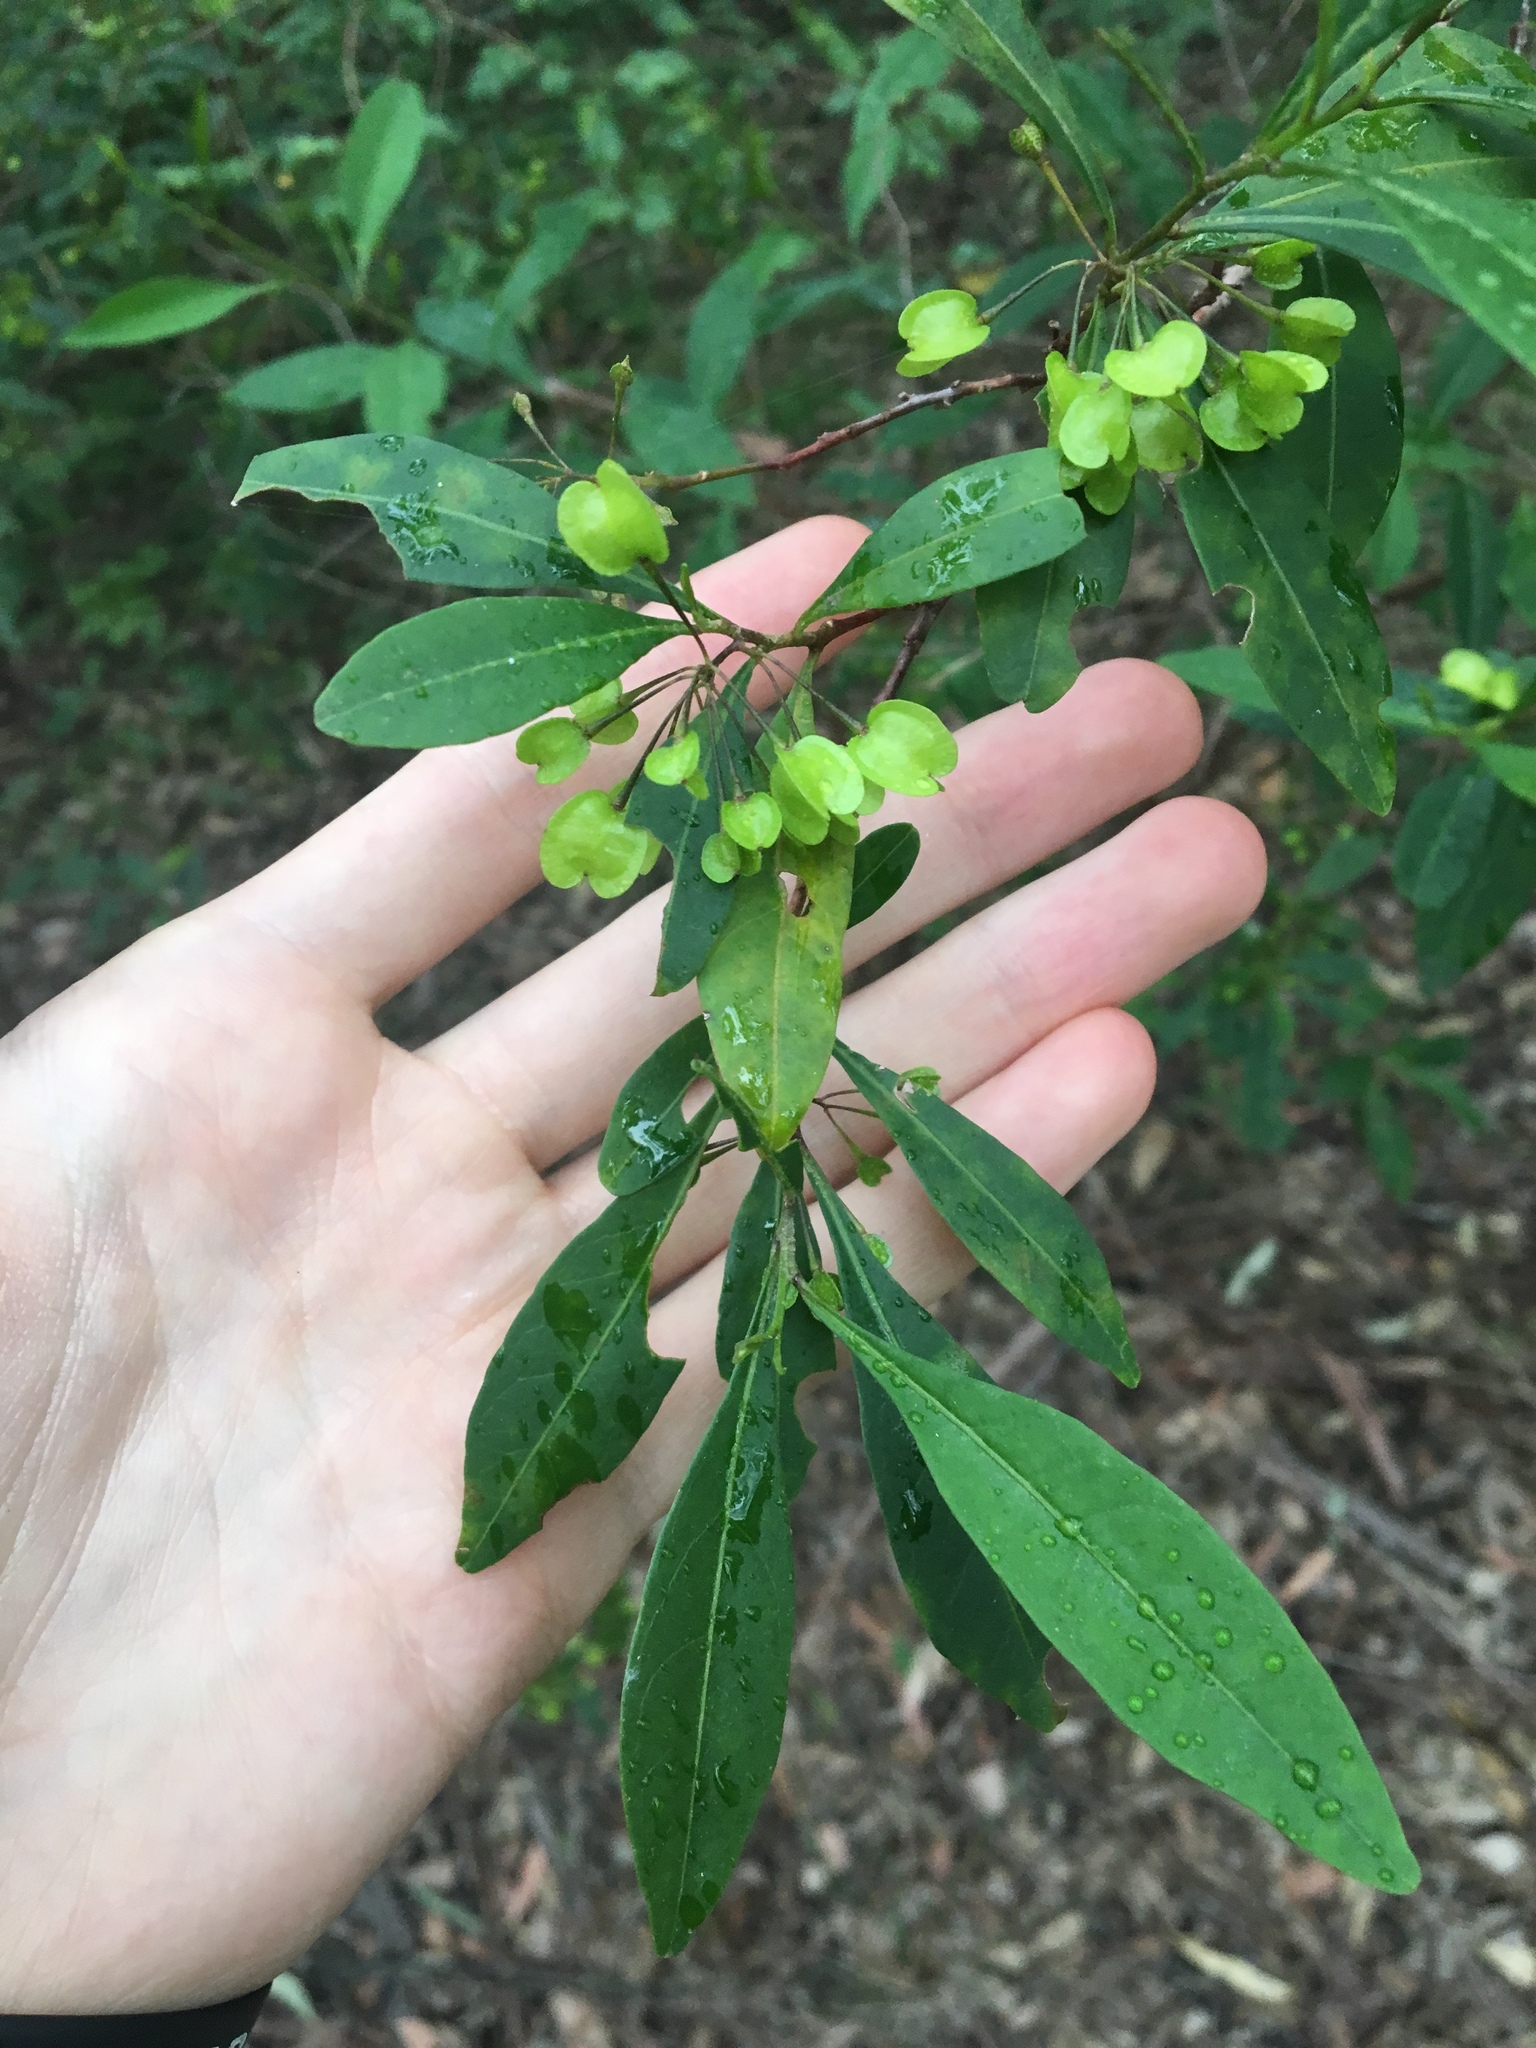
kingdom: Plantae
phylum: Tracheophyta
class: Magnoliopsida
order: Sapindales
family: Sapindaceae
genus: Dodonaea
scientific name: Dodonaea triquetra
